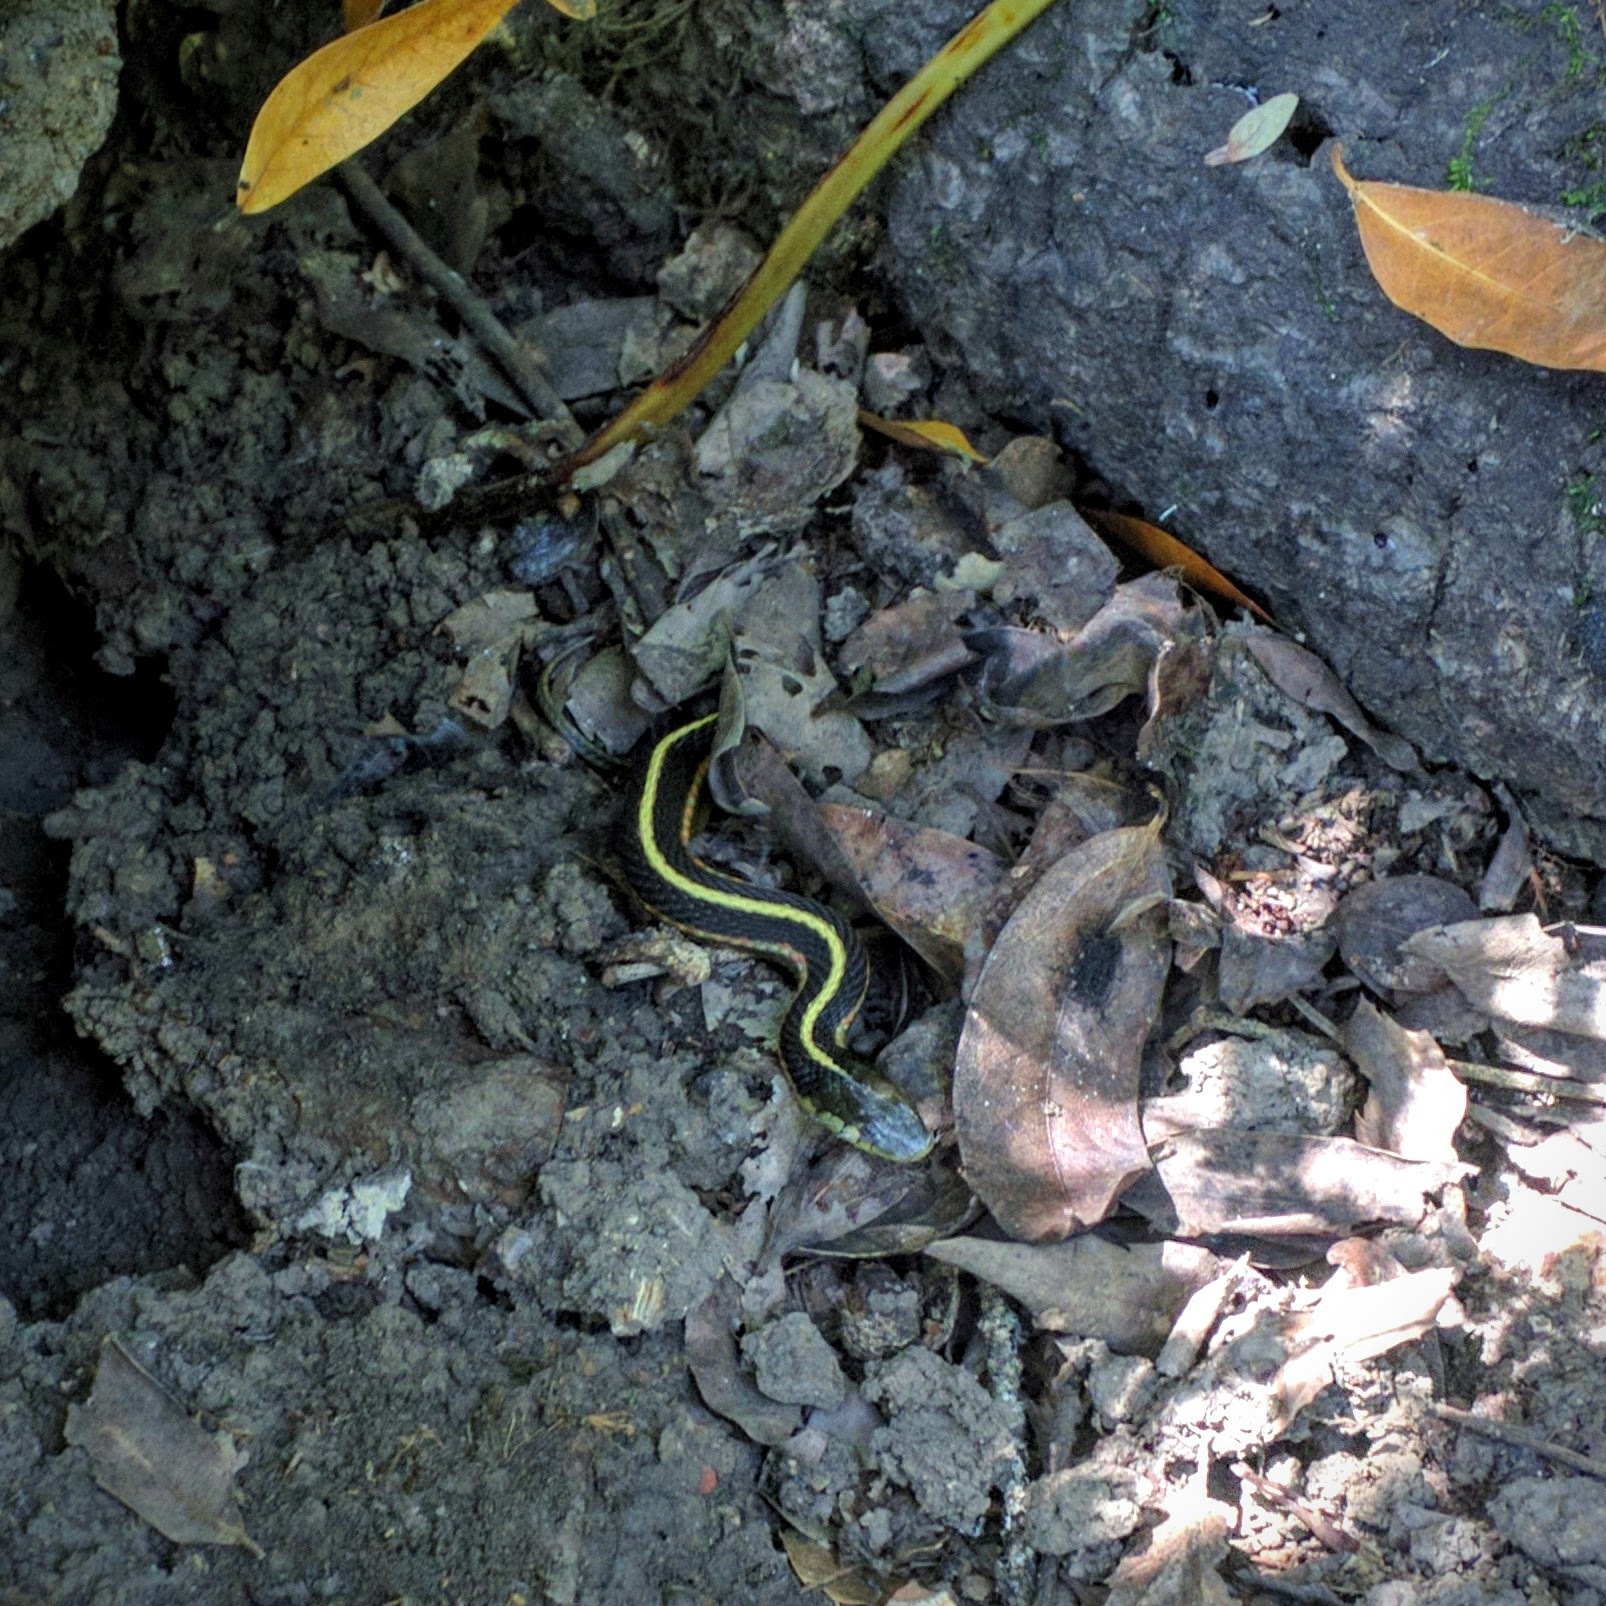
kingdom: Animalia
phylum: Chordata
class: Squamata
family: Colubridae
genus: Thamnophis
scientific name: Thamnophis elegans
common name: Western terrestrial garter snake
